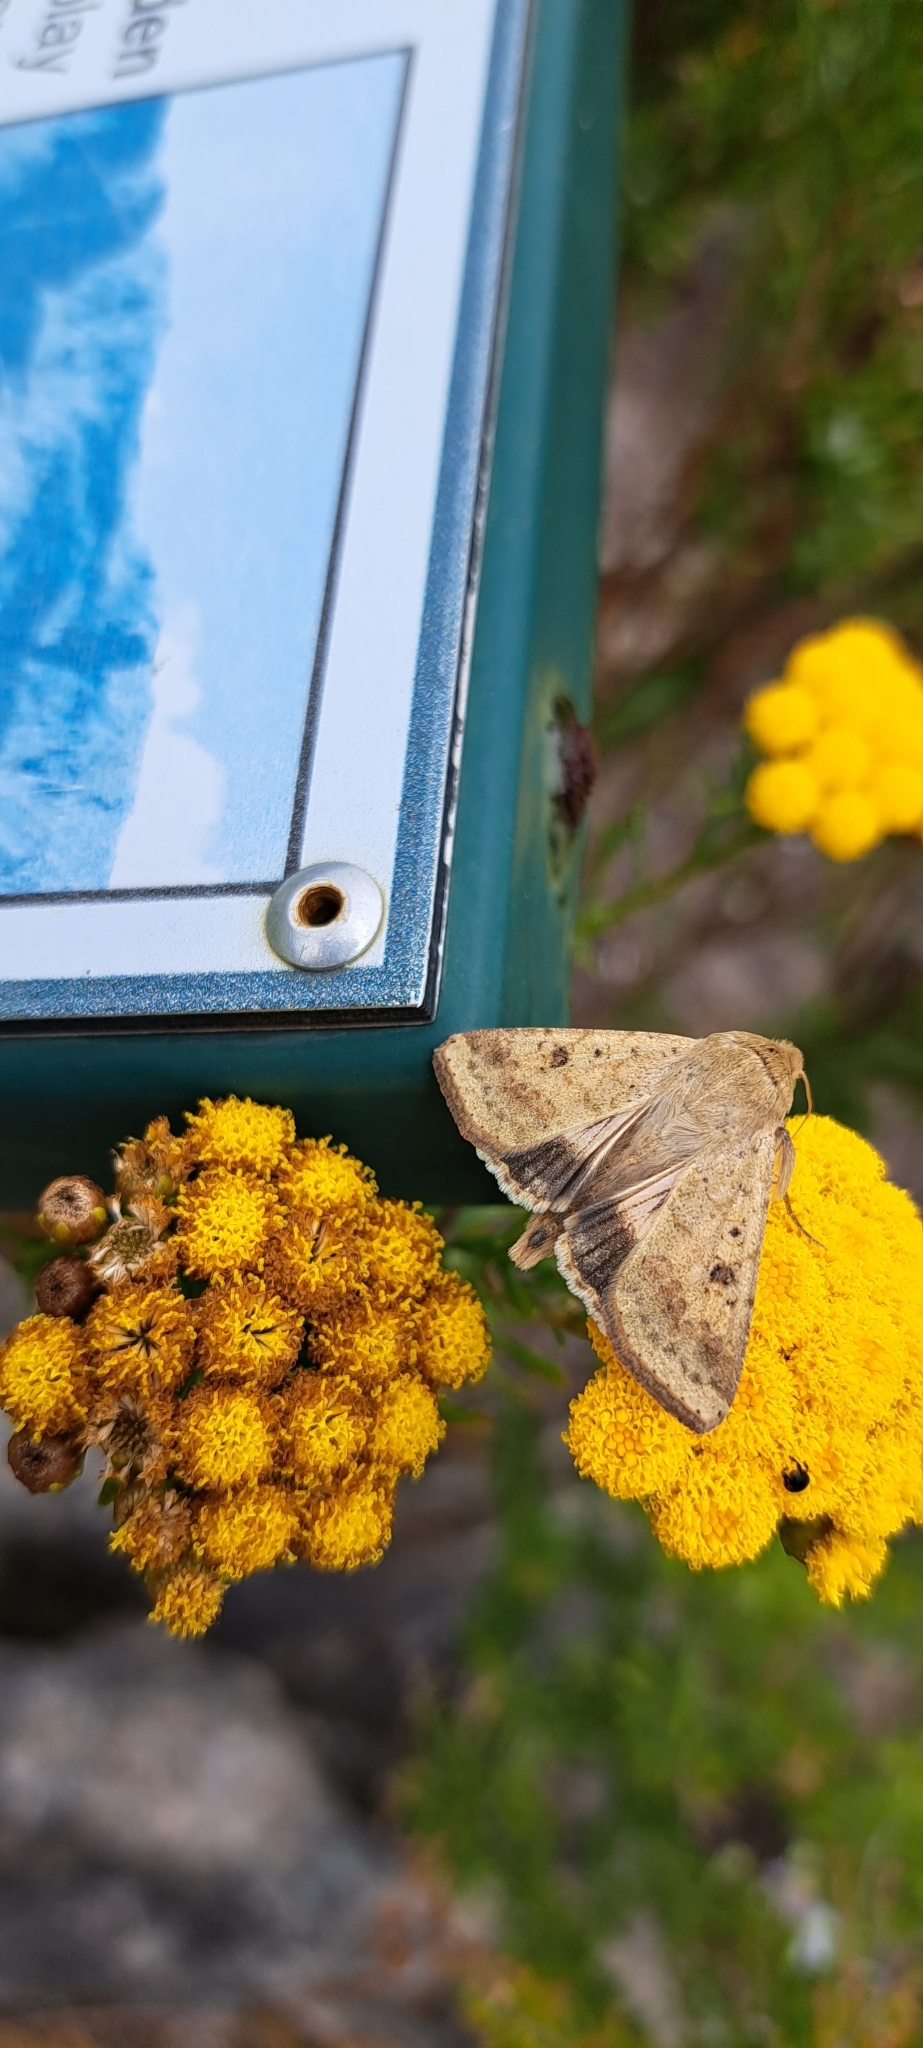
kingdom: Animalia
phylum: Arthropoda
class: Insecta
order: Lepidoptera
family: Noctuidae
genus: Helicoverpa
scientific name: Helicoverpa armigera
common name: Cotton bollworm
